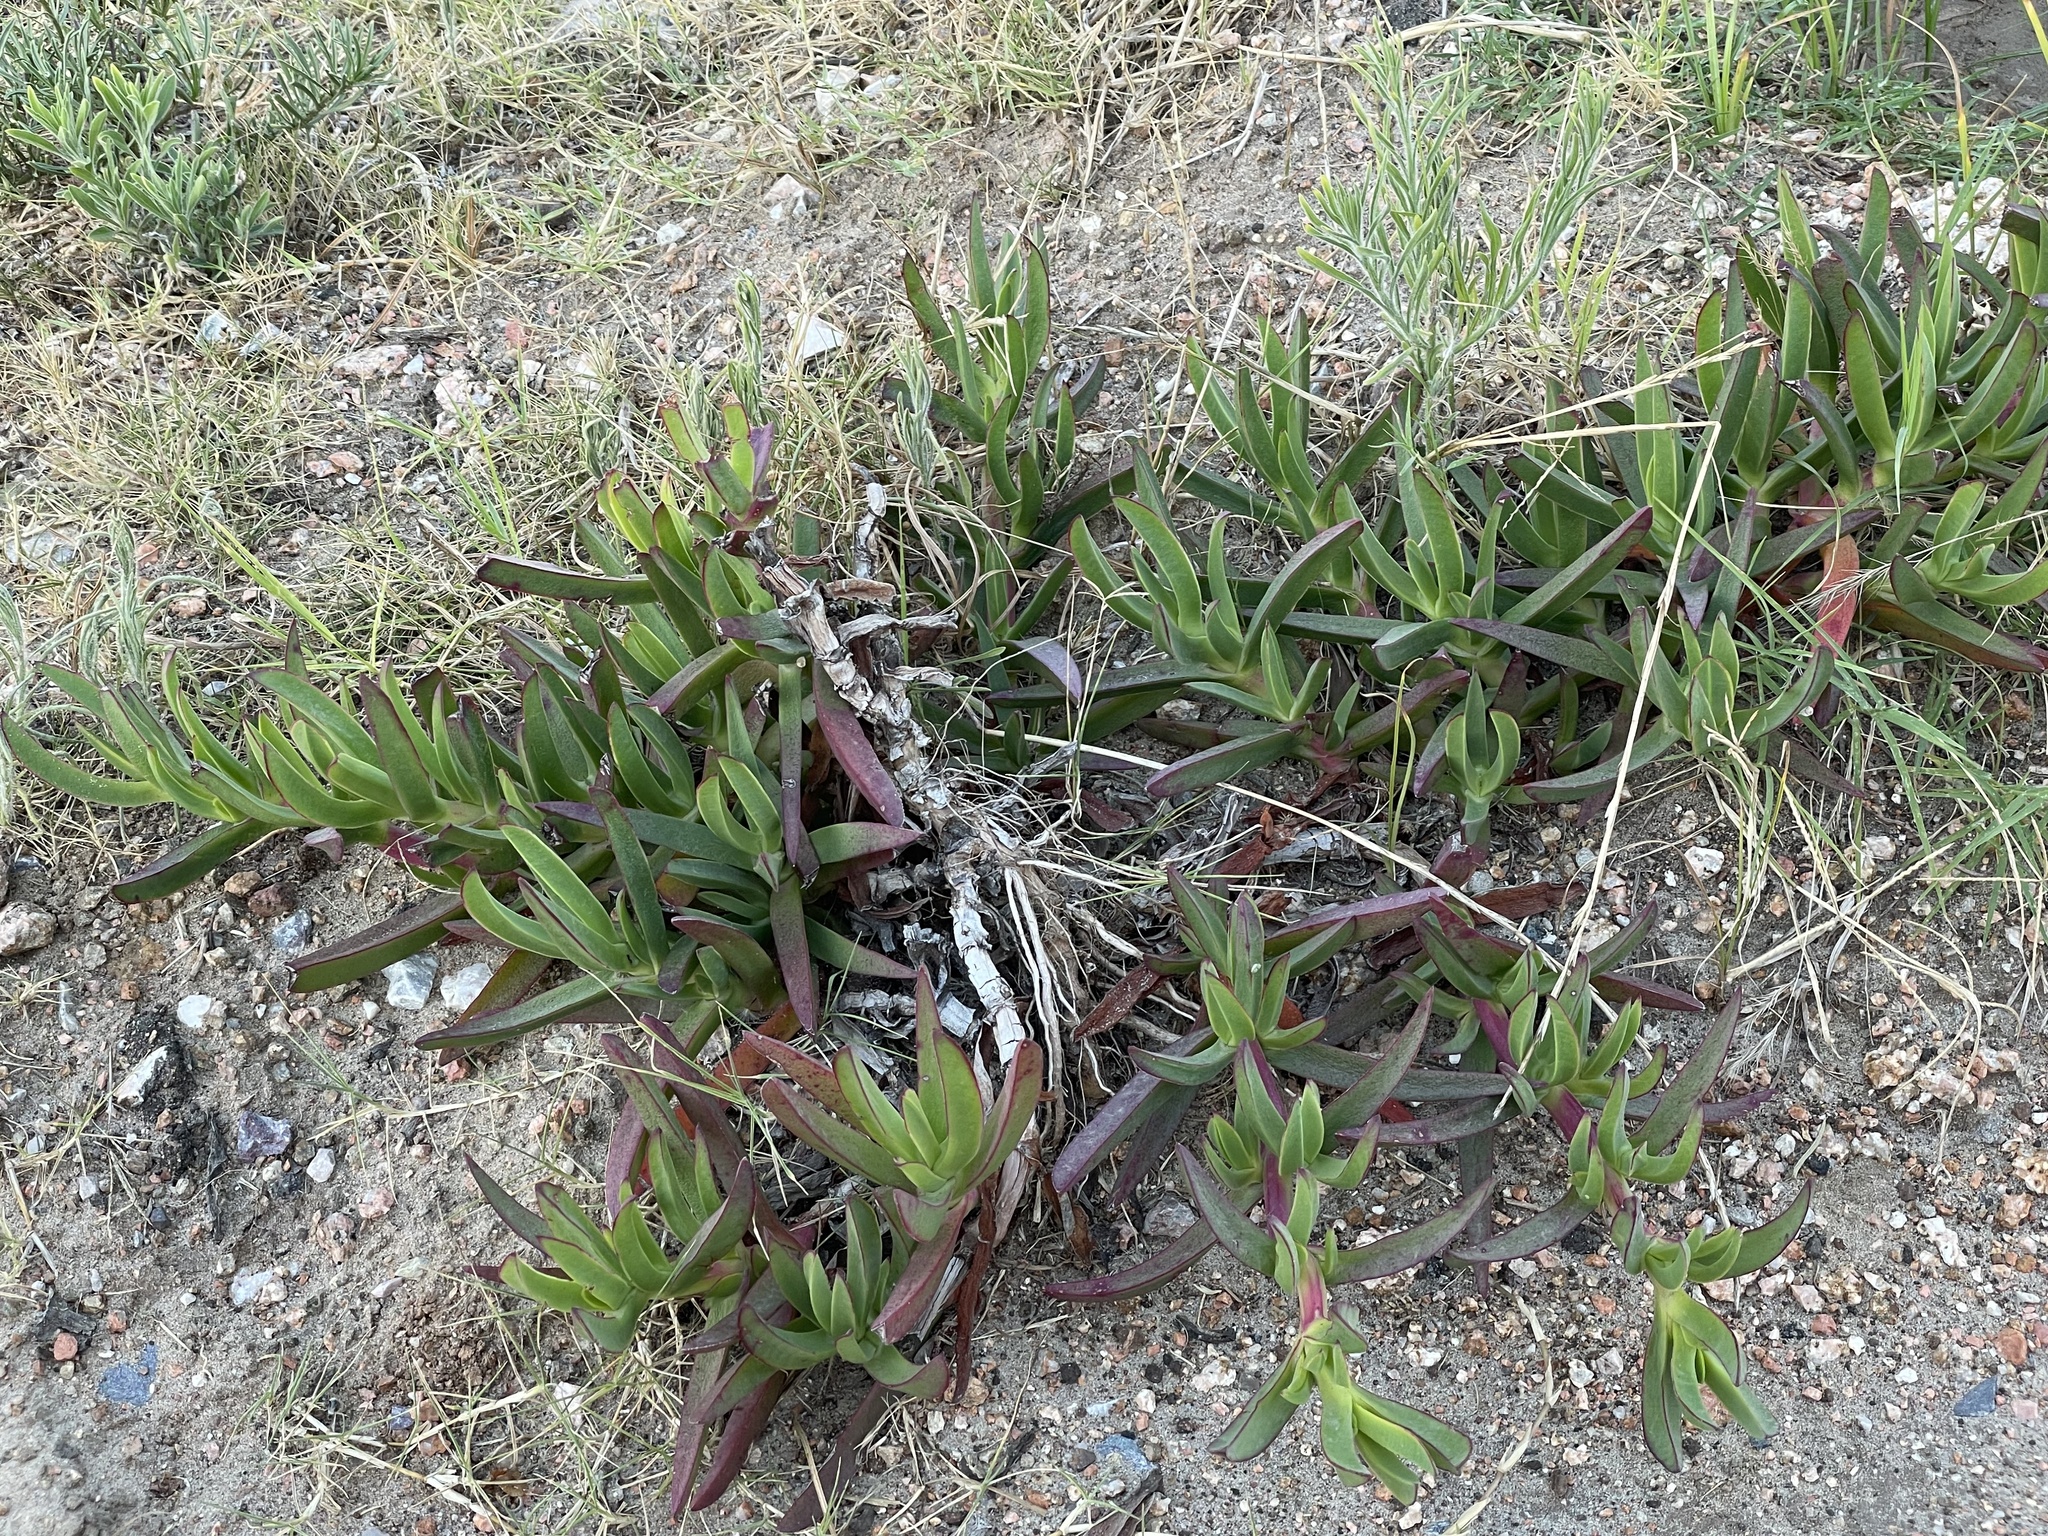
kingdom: Plantae
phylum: Tracheophyta
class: Magnoliopsida
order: Caryophyllales
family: Aizoaceae
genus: Carpobrotus
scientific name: Carpobrotus edulis
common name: Hottentot-fig
